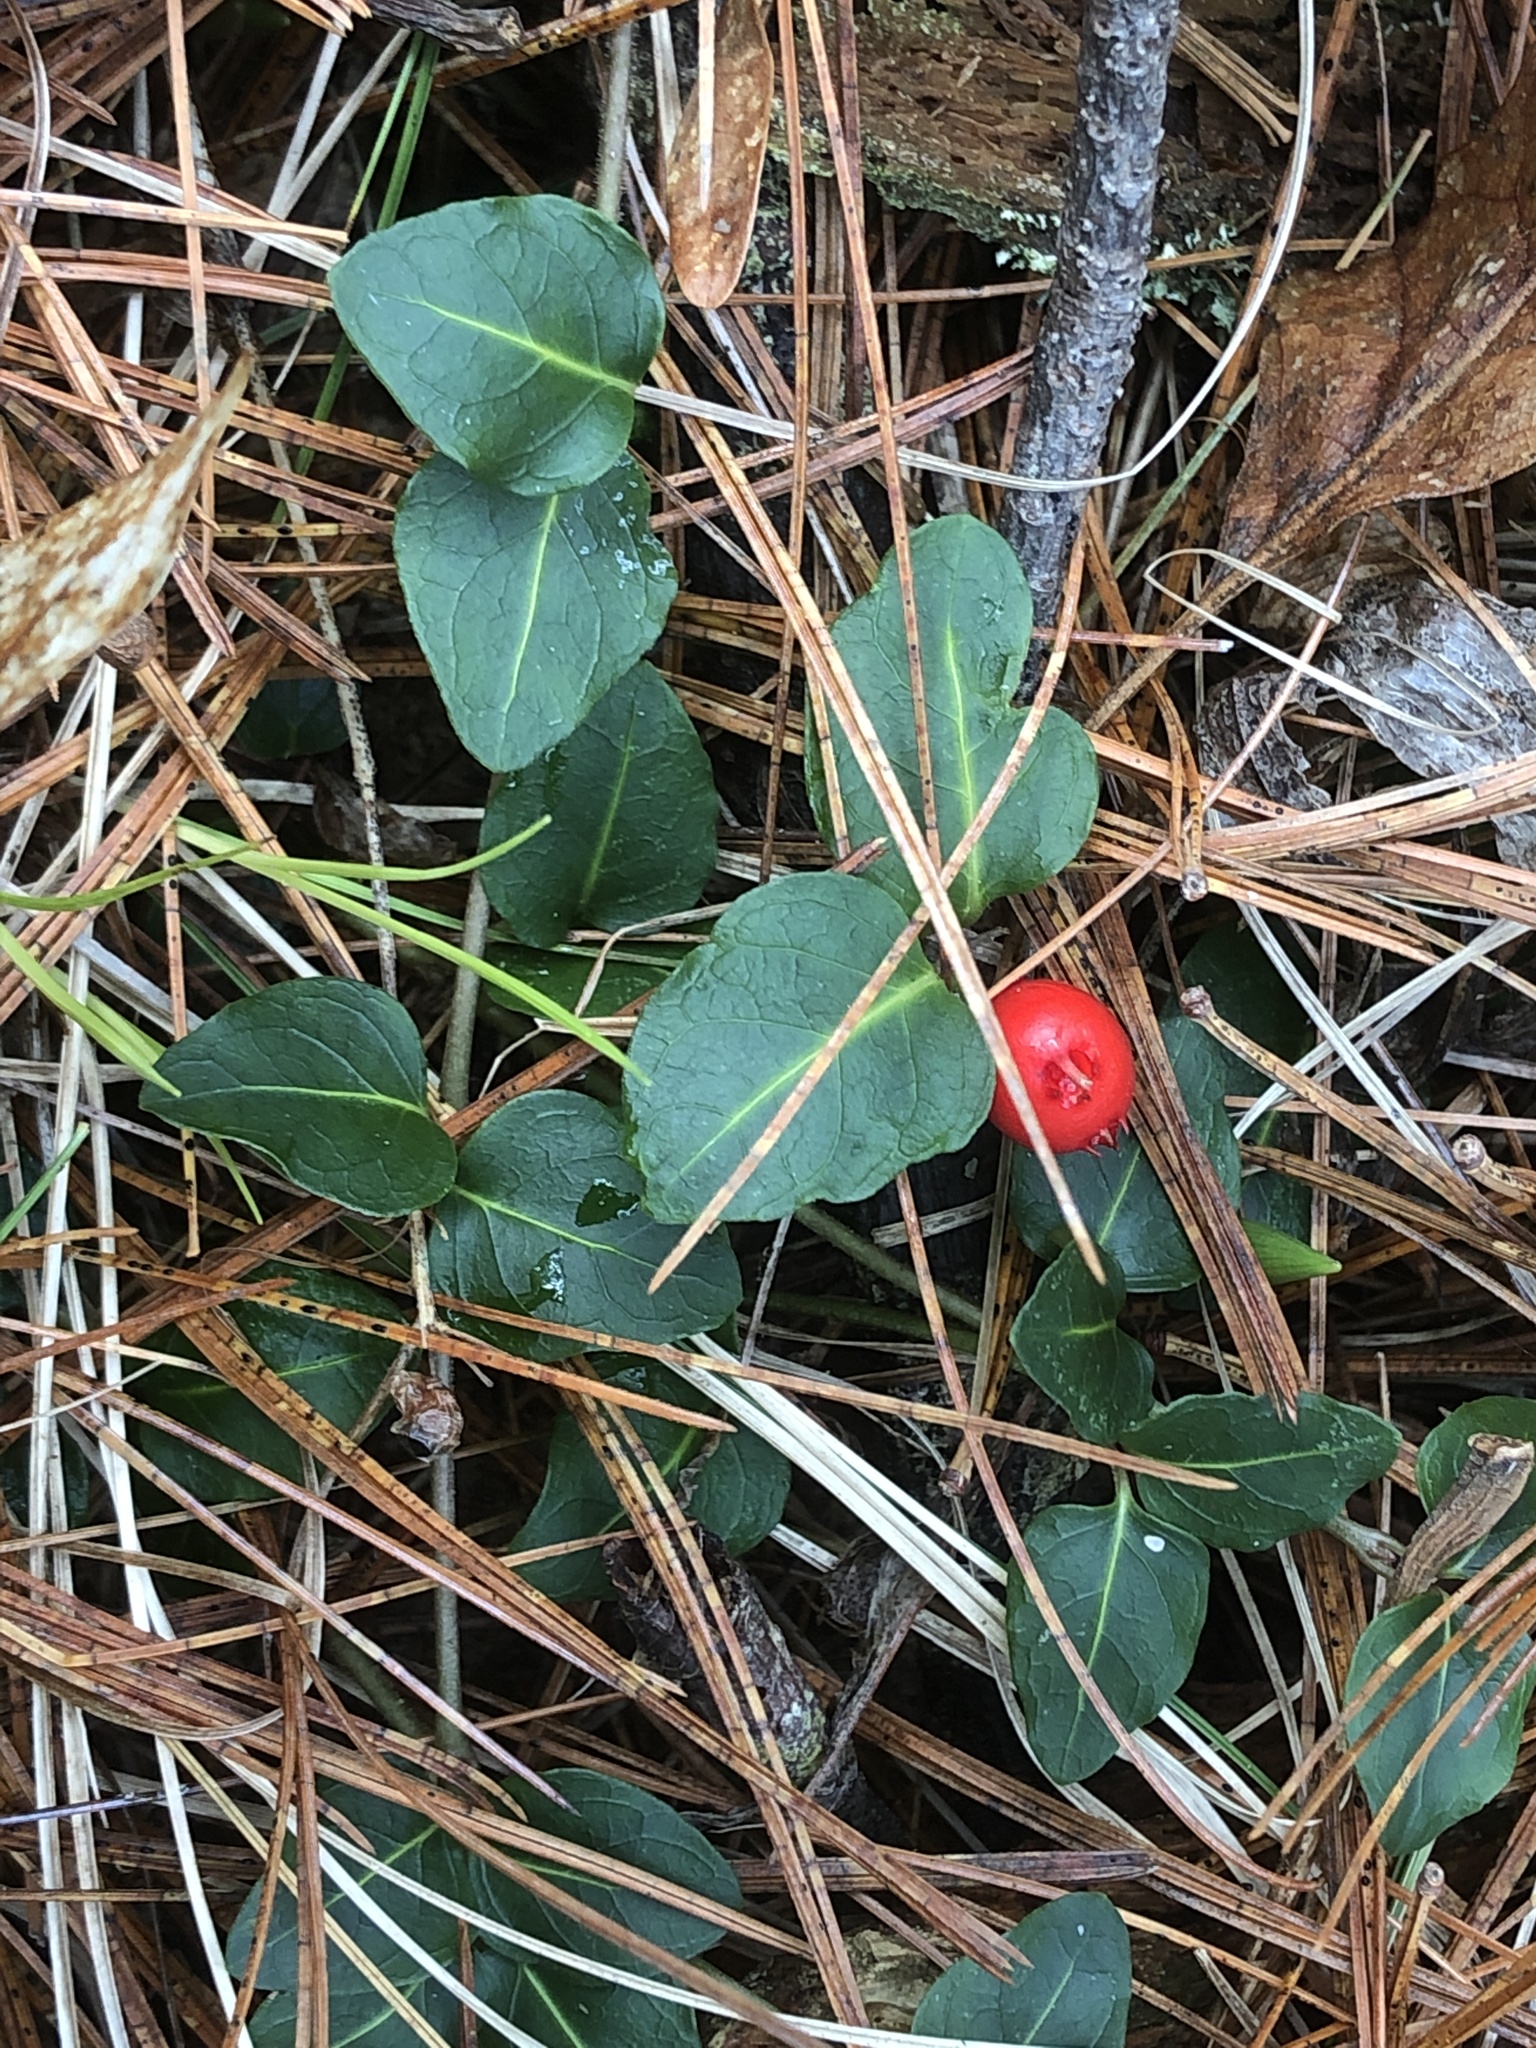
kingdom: Plantae
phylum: Tracheophyta
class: Magnoliopsida
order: Gentianales
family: Rubiaceae
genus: Mitchella
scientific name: Mitchella repens
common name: Partridge-berry
